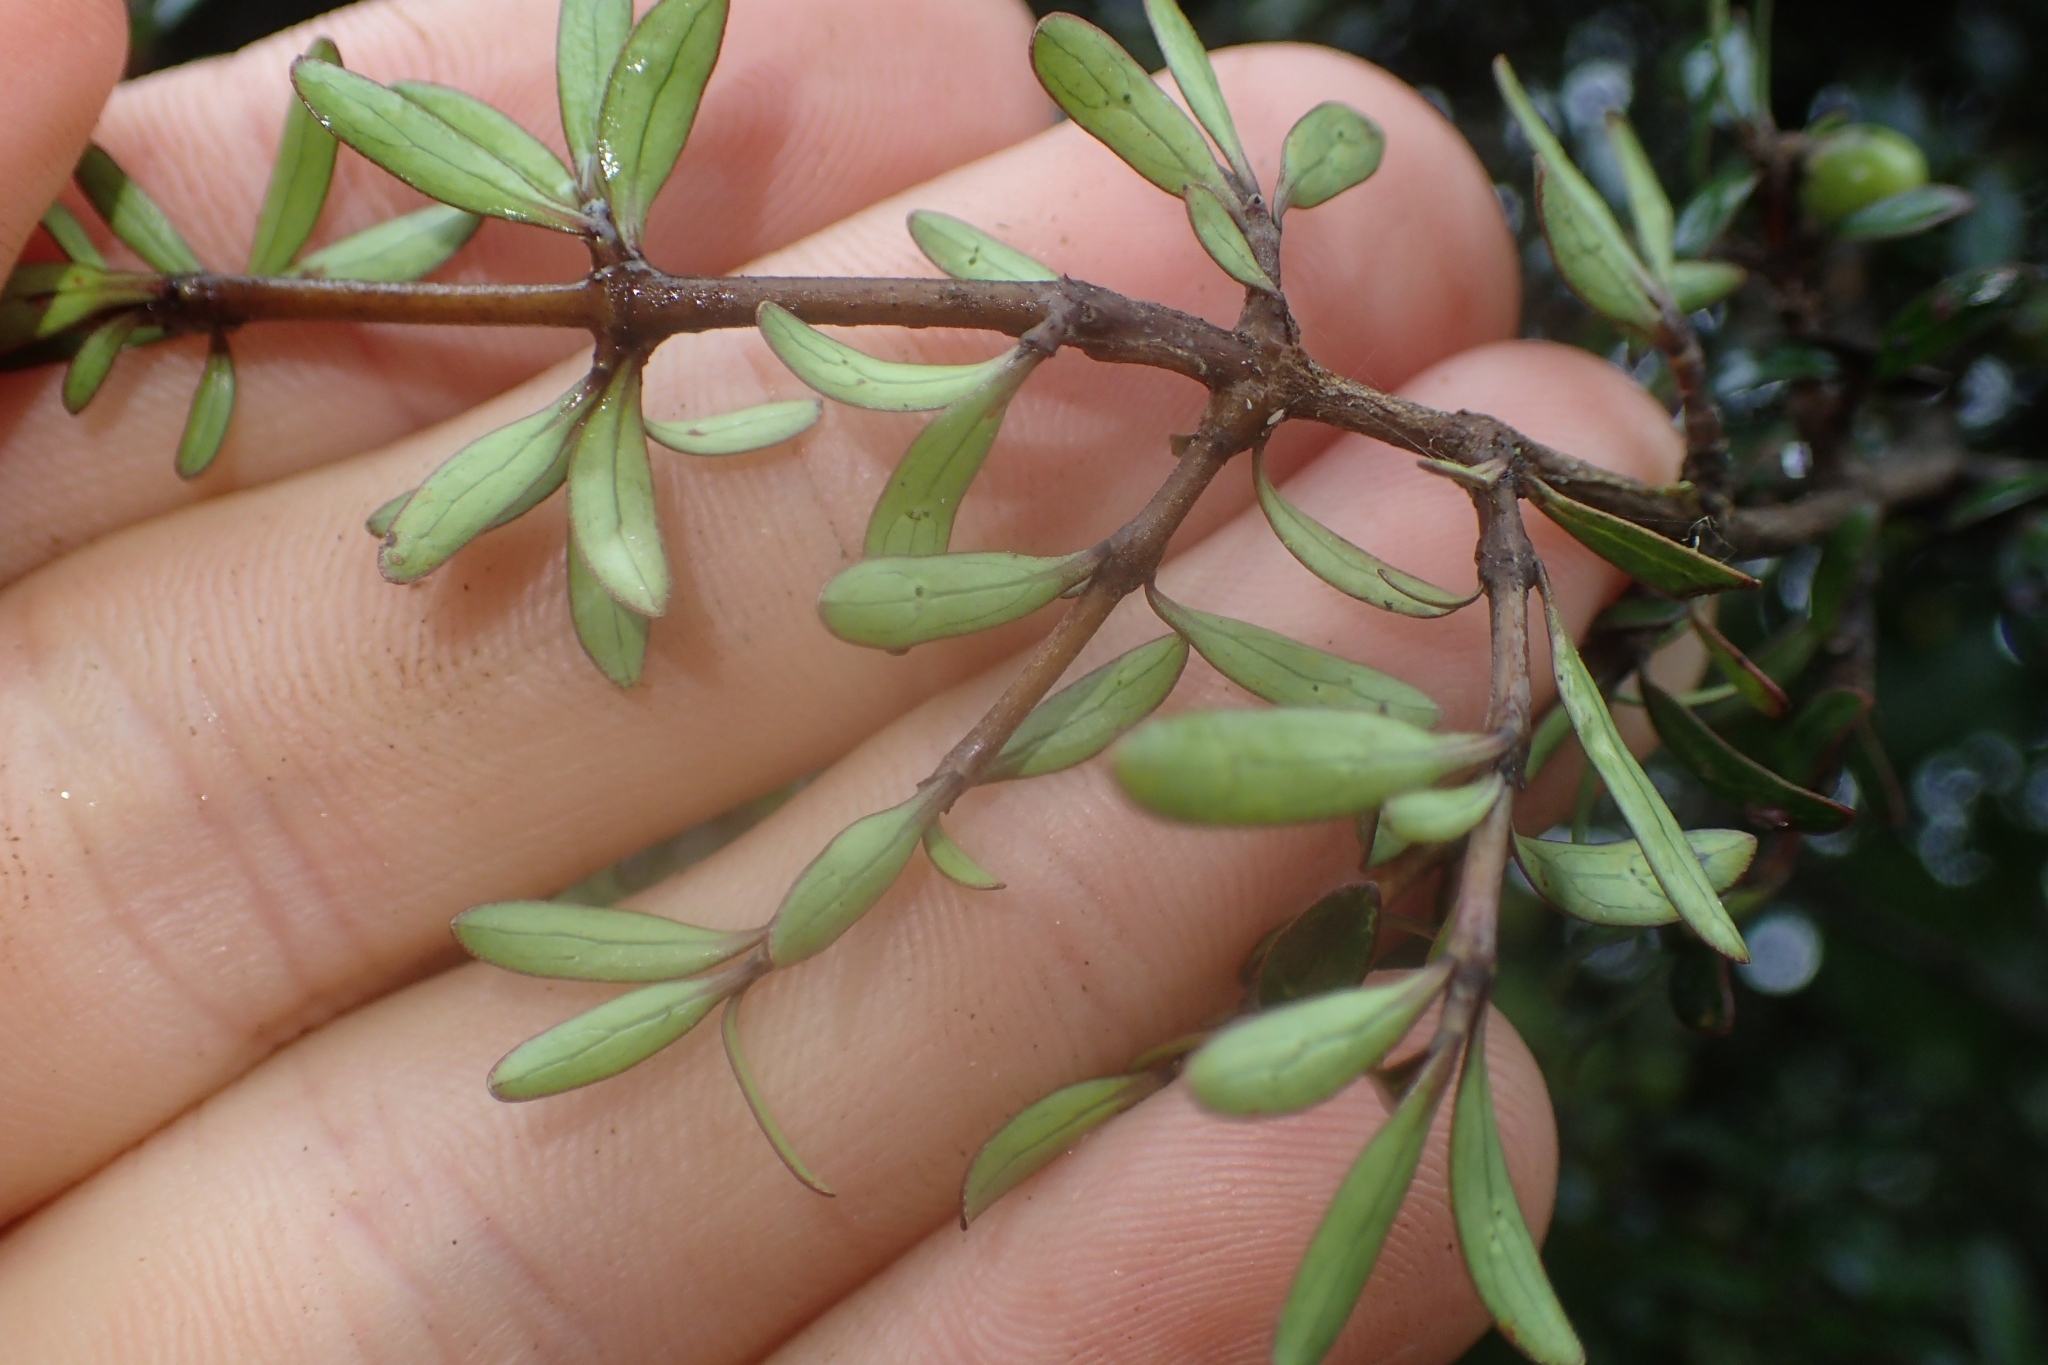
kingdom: Plantae
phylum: Tracheophyta
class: Magnoliopsida
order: Gentianales
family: Rubiaceae
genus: Coprosma
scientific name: Coprosma propinqua
